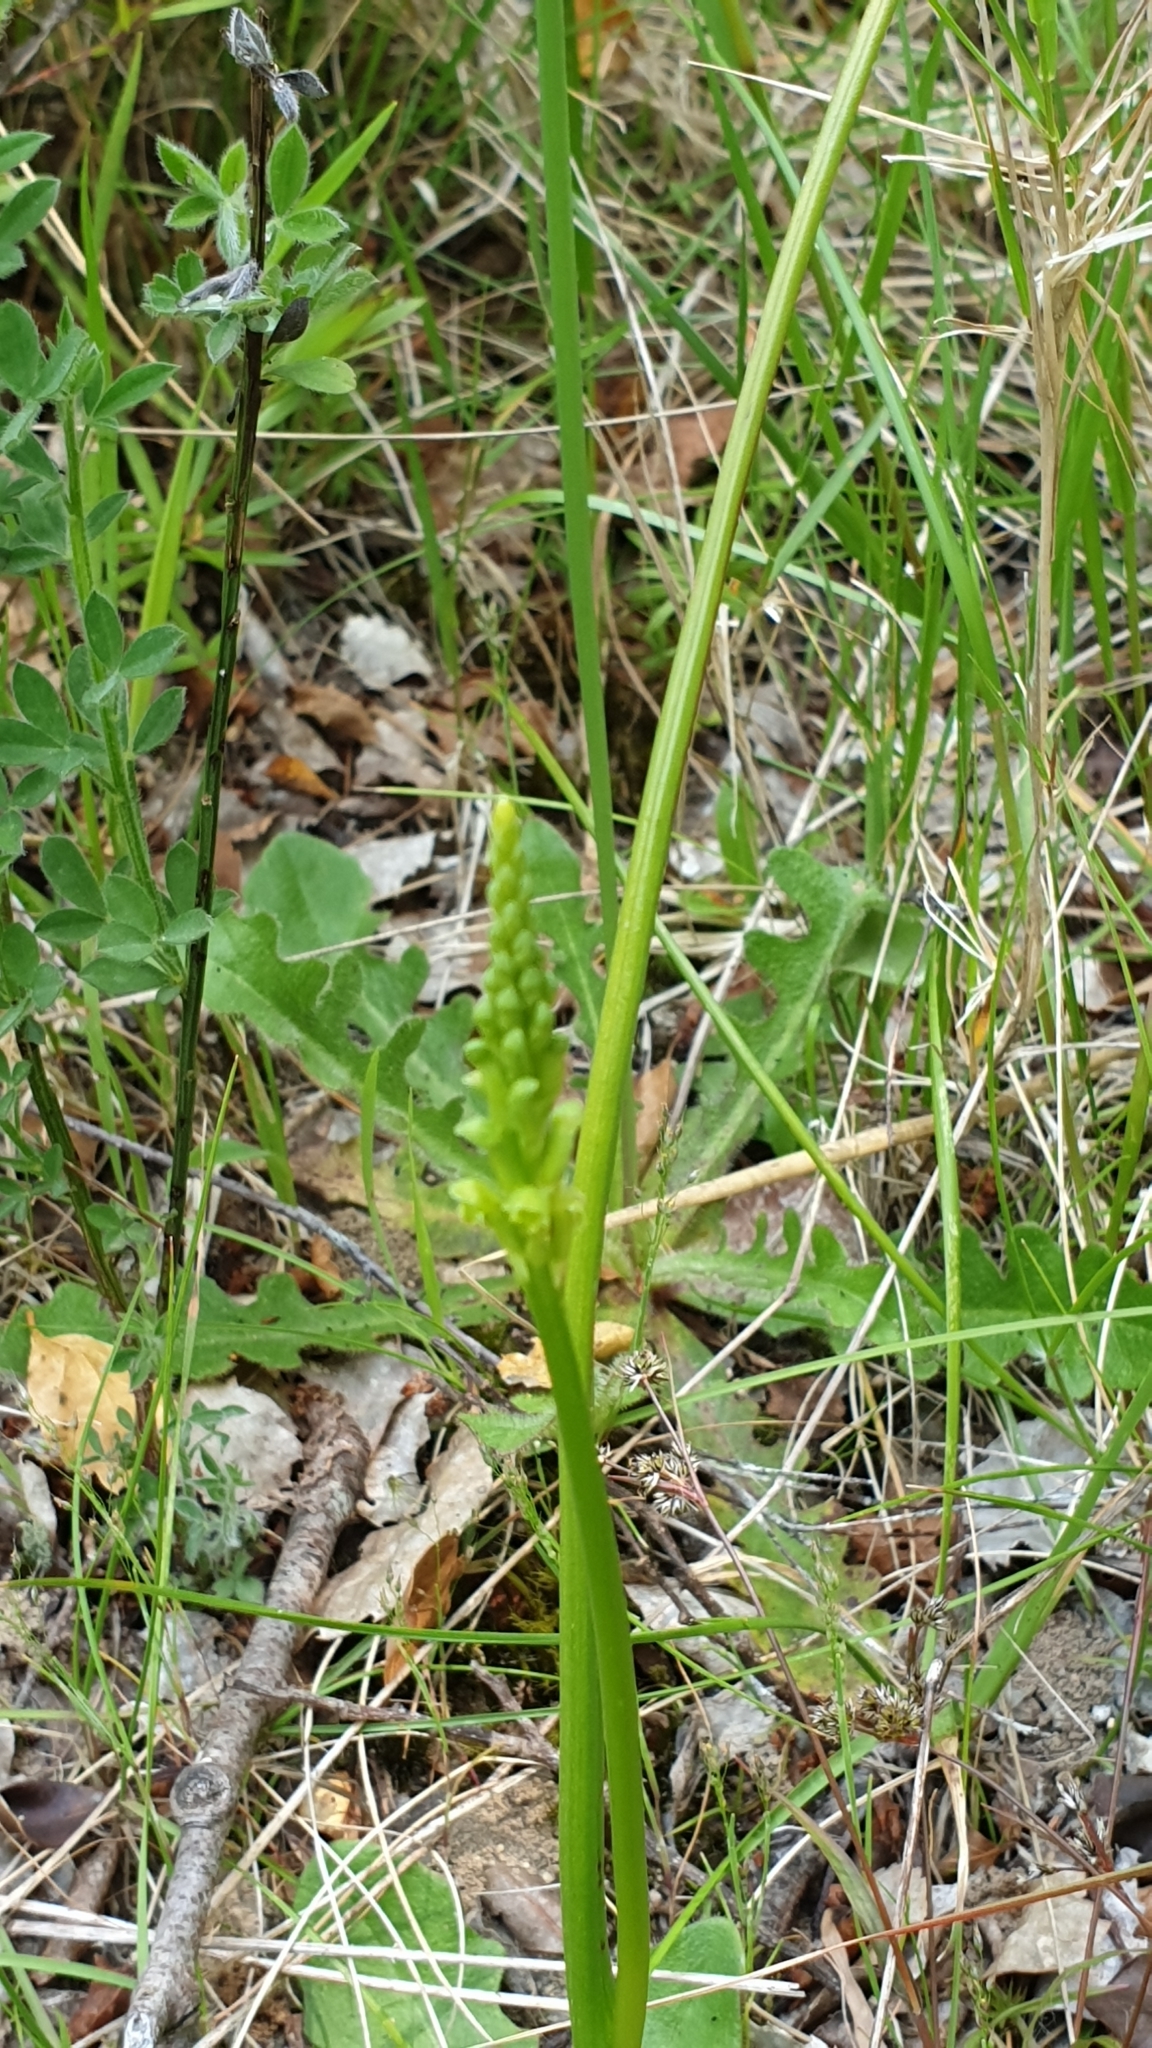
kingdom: Plantae
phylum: Tracheophyta
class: Liliopsida
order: Asparagales
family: Orchidaceae
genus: Microtis
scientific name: Microtis unifolia
